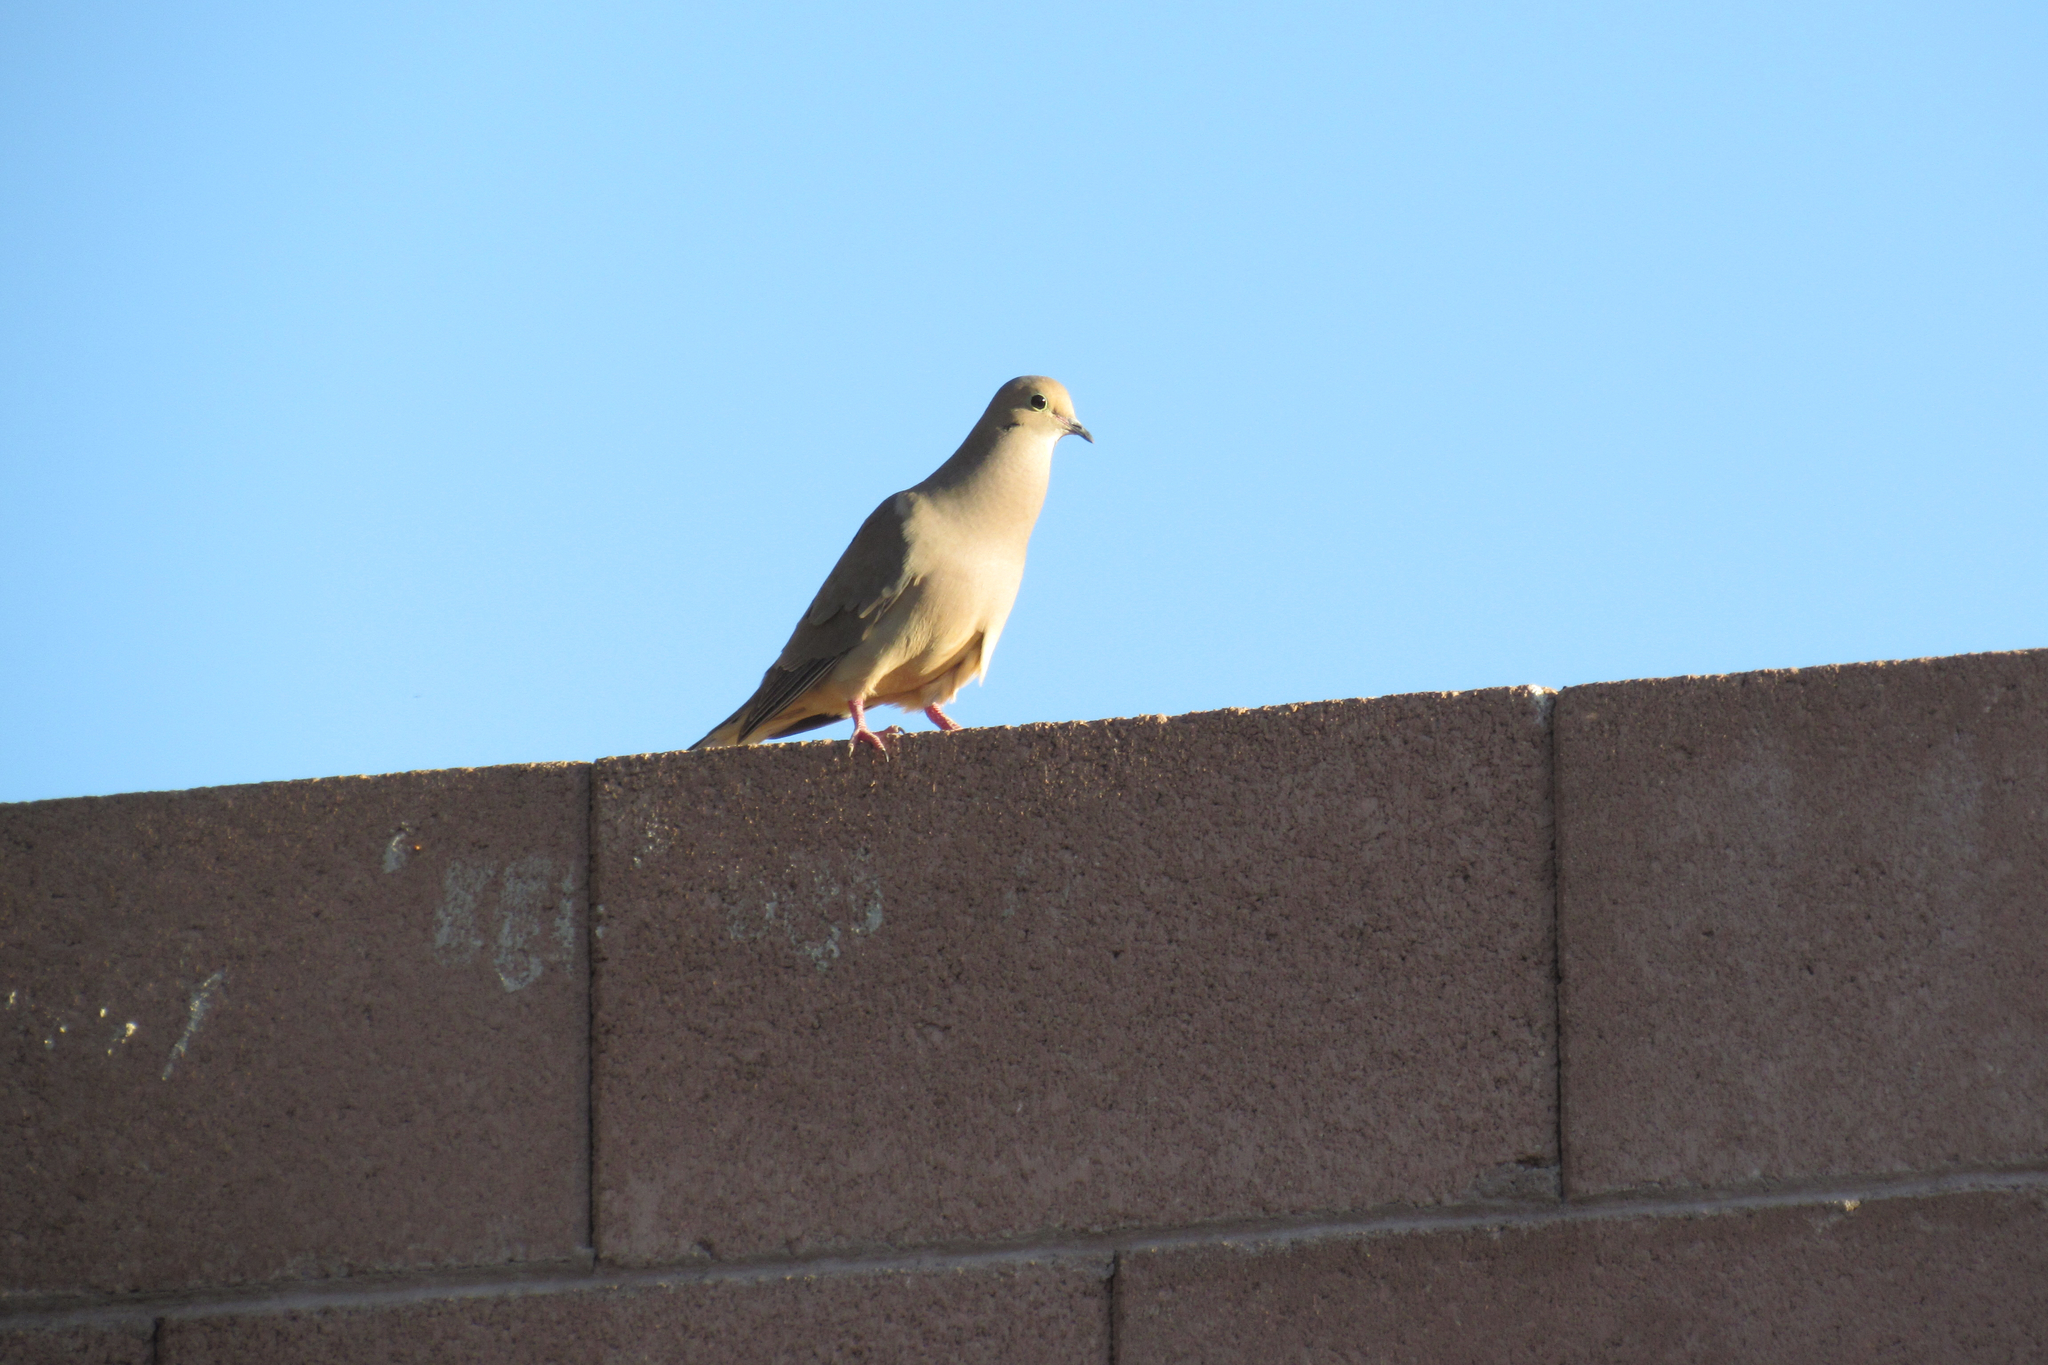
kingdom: Animalia
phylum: Chordata
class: Aves
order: Columbiformes
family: Columbidae
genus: Zenaida
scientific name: Zenaida macroura
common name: Mourning dove
